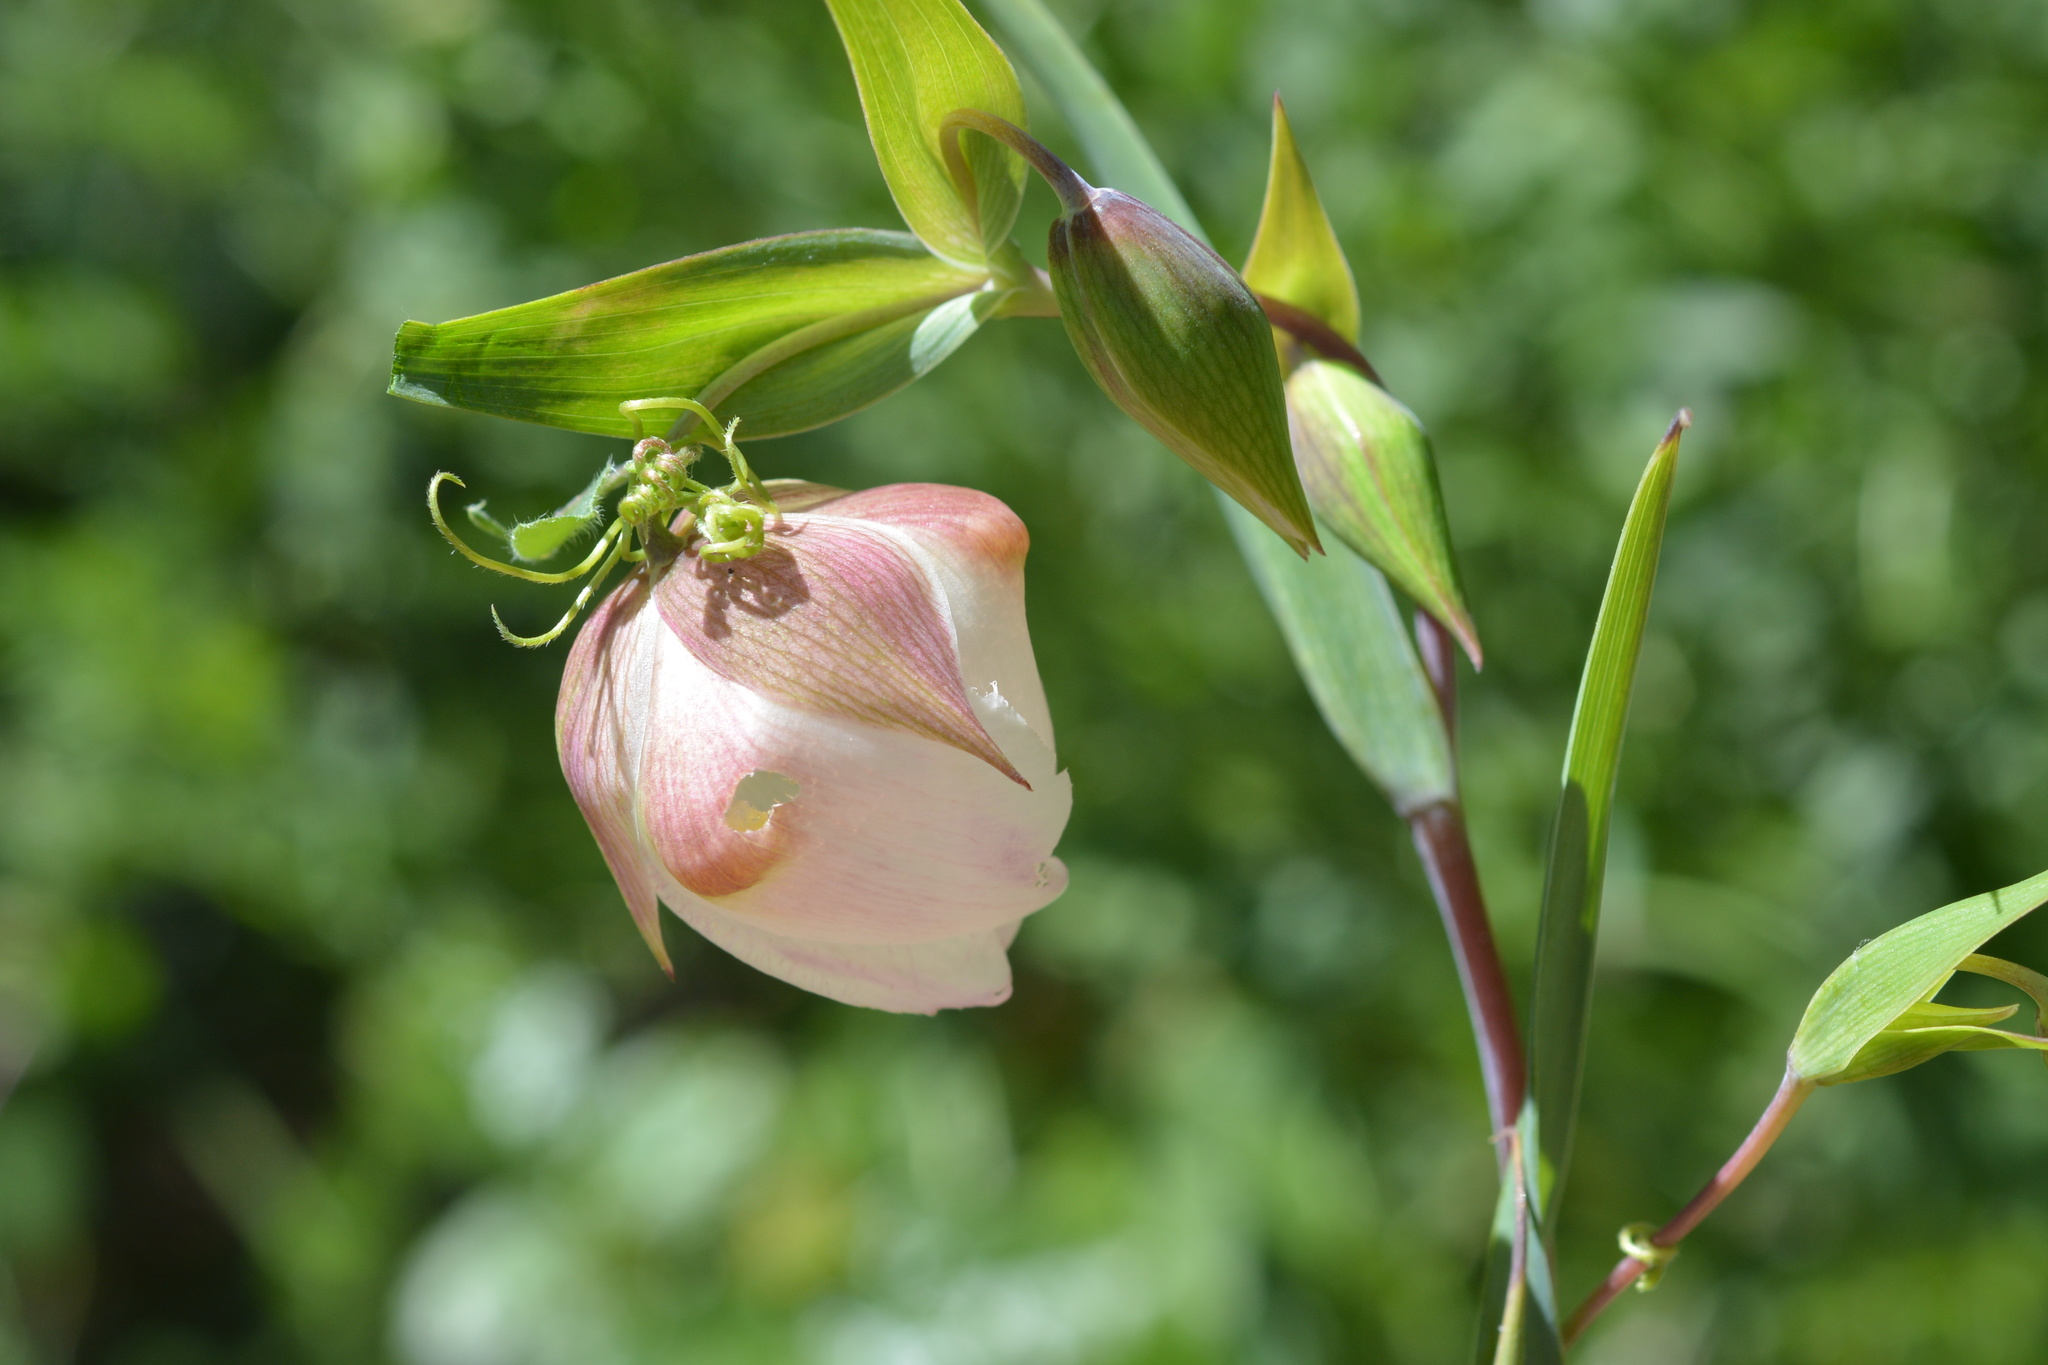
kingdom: Plantae
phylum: Tracheophyta
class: Liliopsida
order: Liliales
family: Liliaceae
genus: Calochortus
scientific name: Calochortus albus
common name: Fairy-lantern
